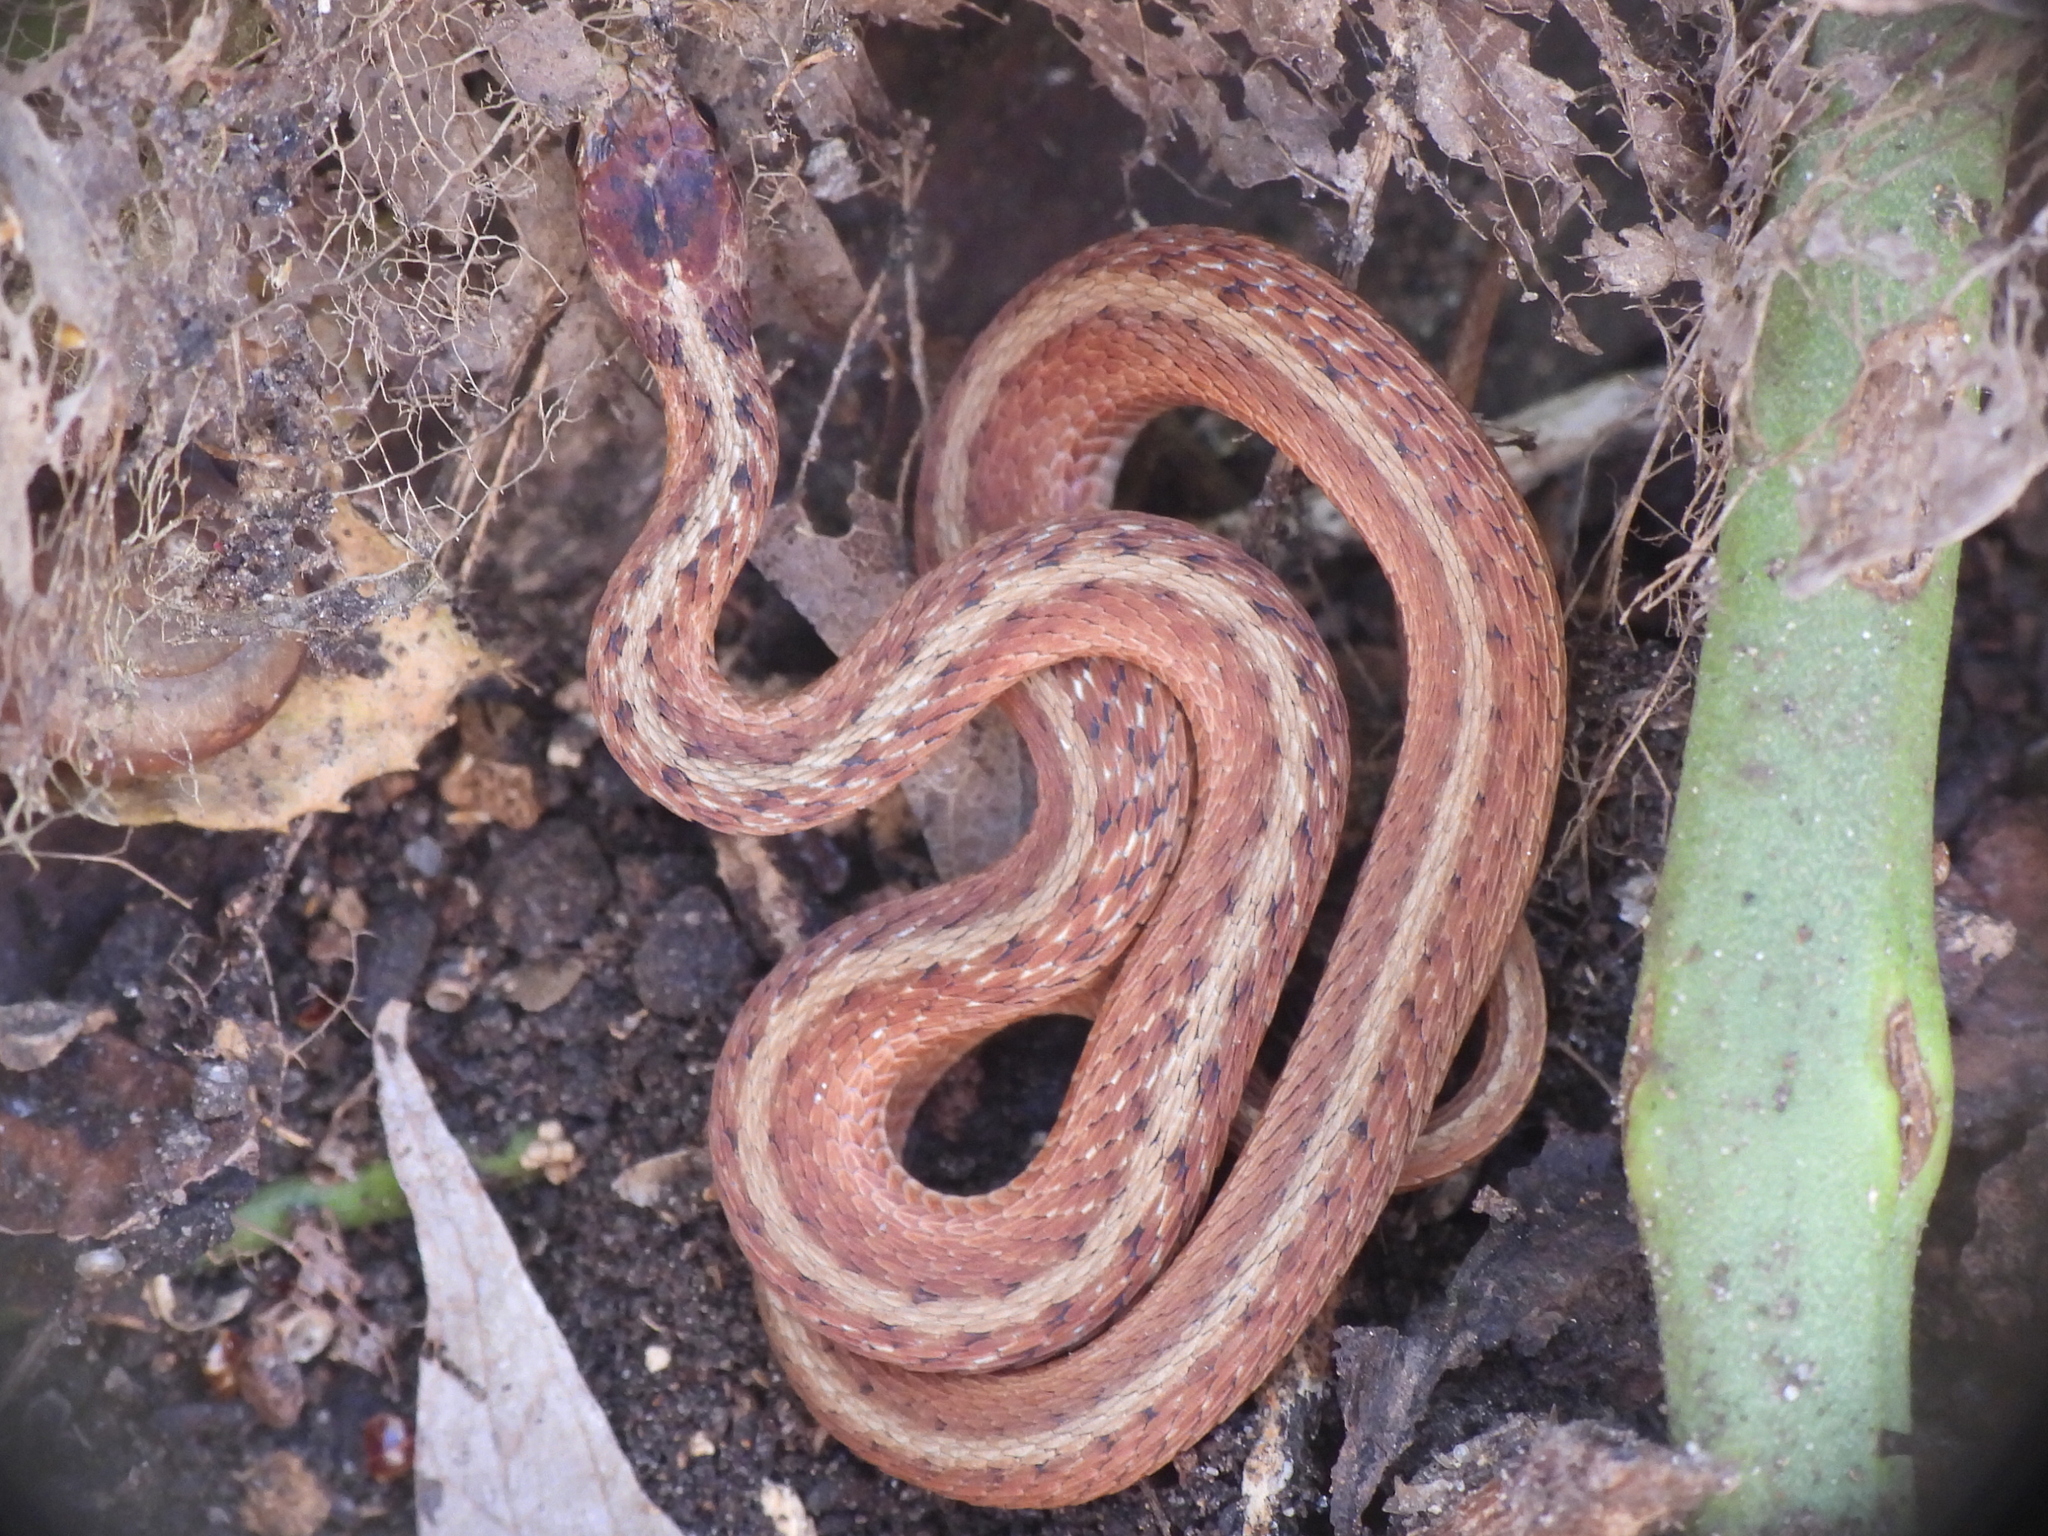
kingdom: Animalia
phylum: Chordata
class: Squamata
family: Colubridae
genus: Storeria
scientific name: Storeria dekayi
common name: (dekay’s) brown snake
